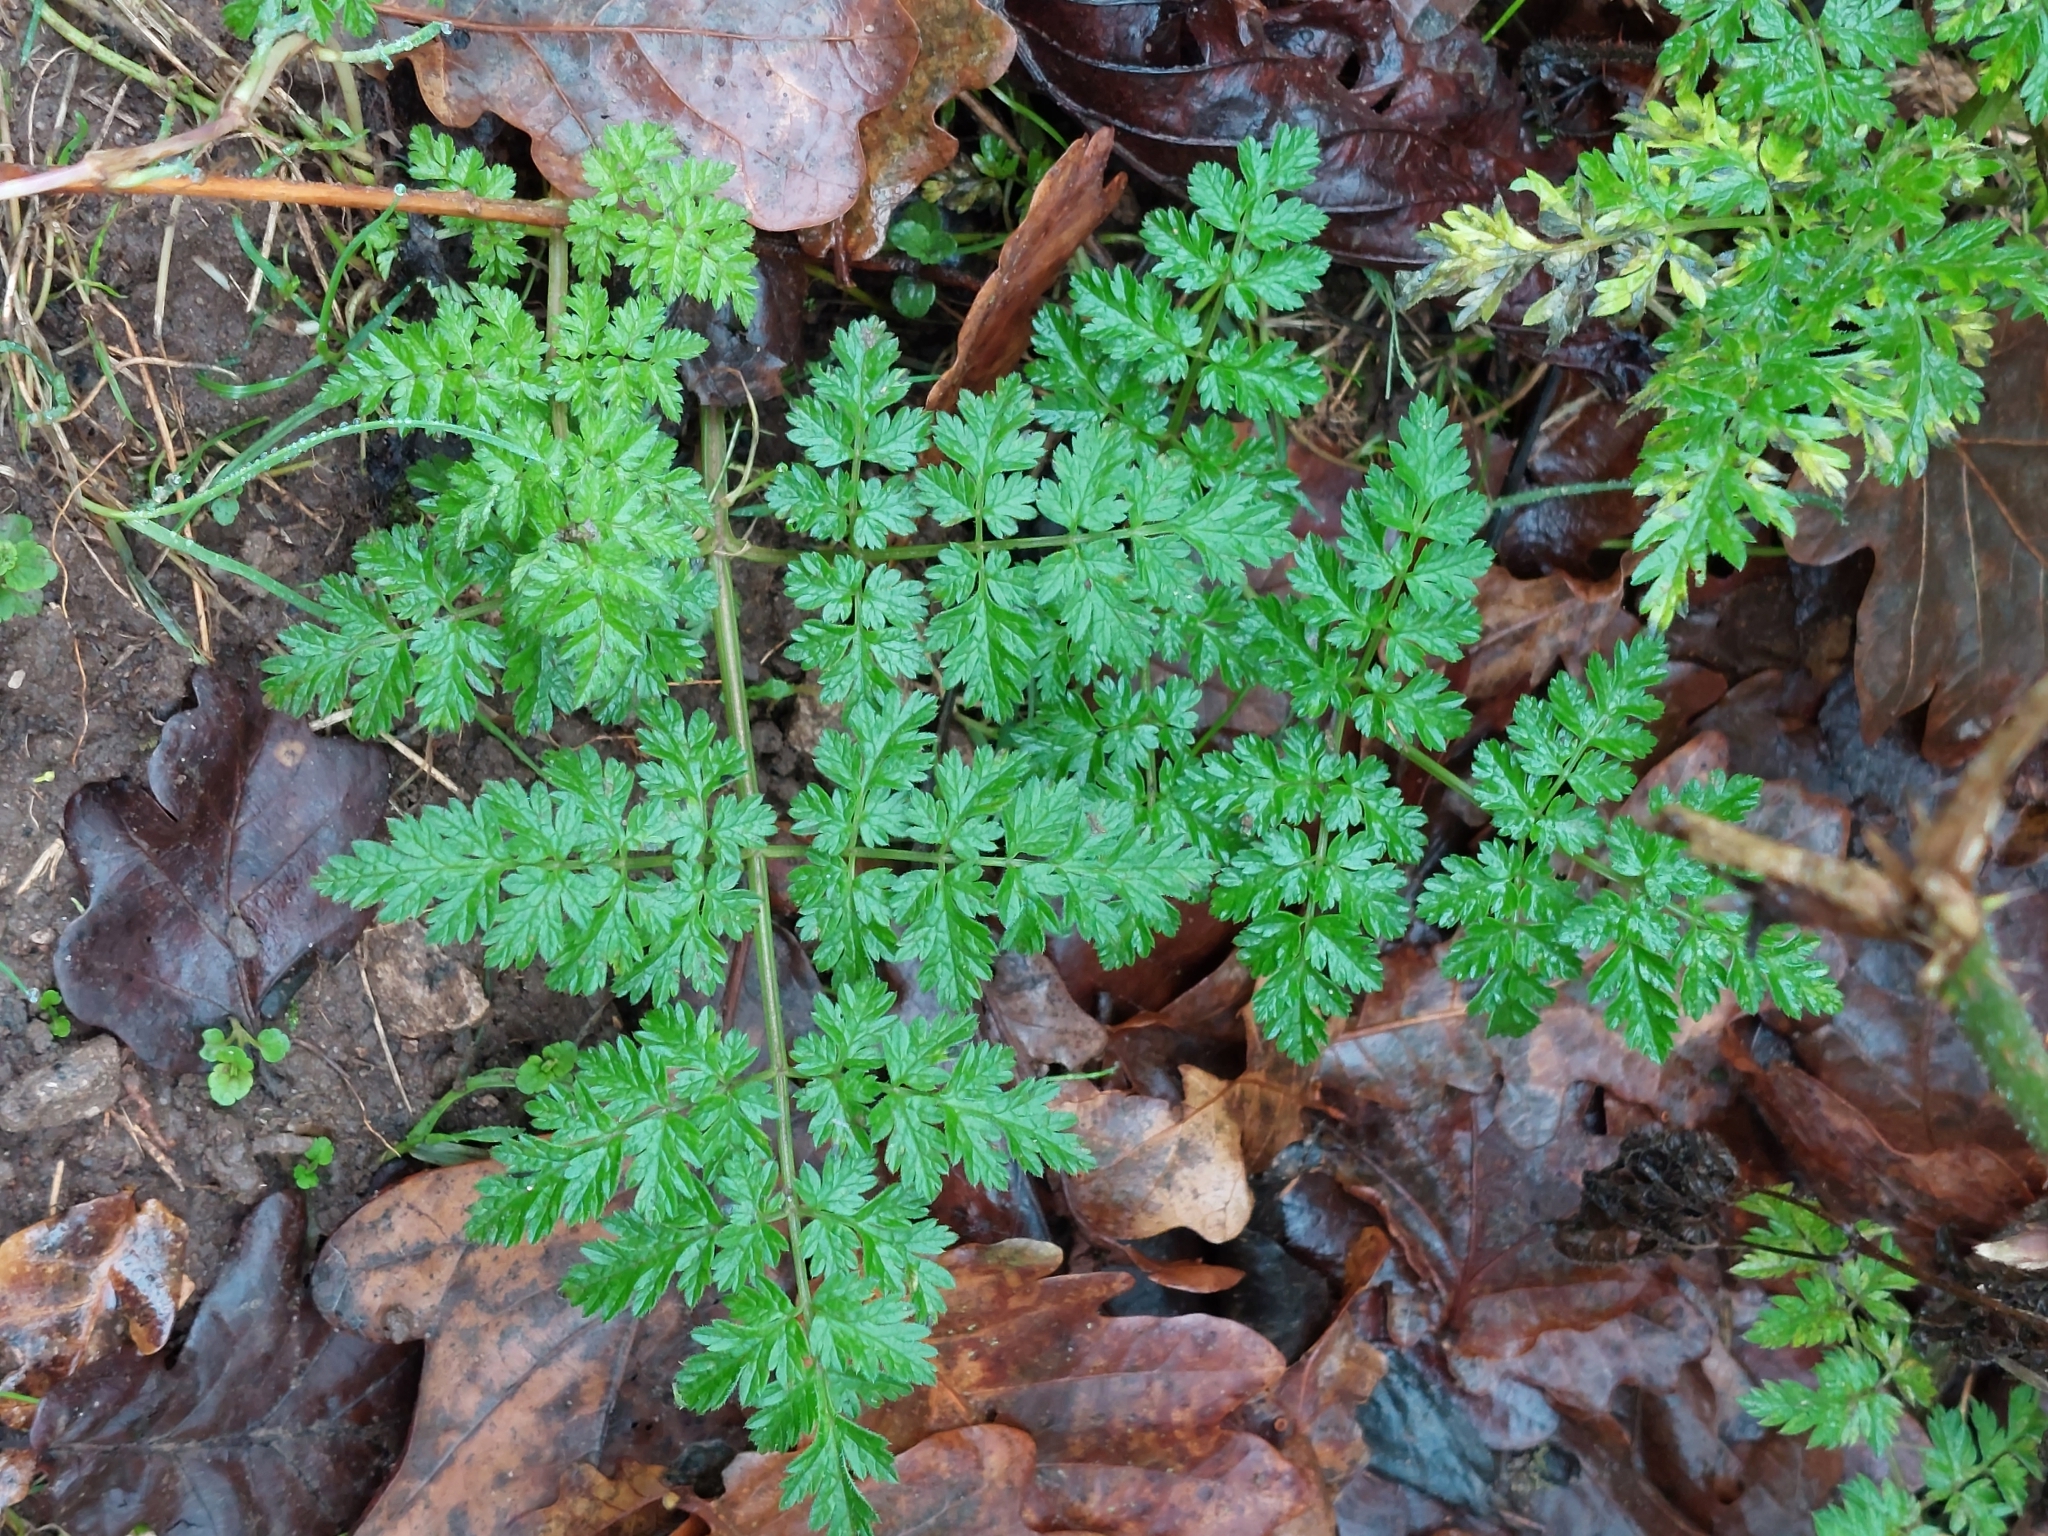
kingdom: Plantae
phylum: Tracheophyta
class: Magnoliopsida
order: Apiales
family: Apiaceae
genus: Anthriscus
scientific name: Anthriscus sylvestris
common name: Cow parsley
